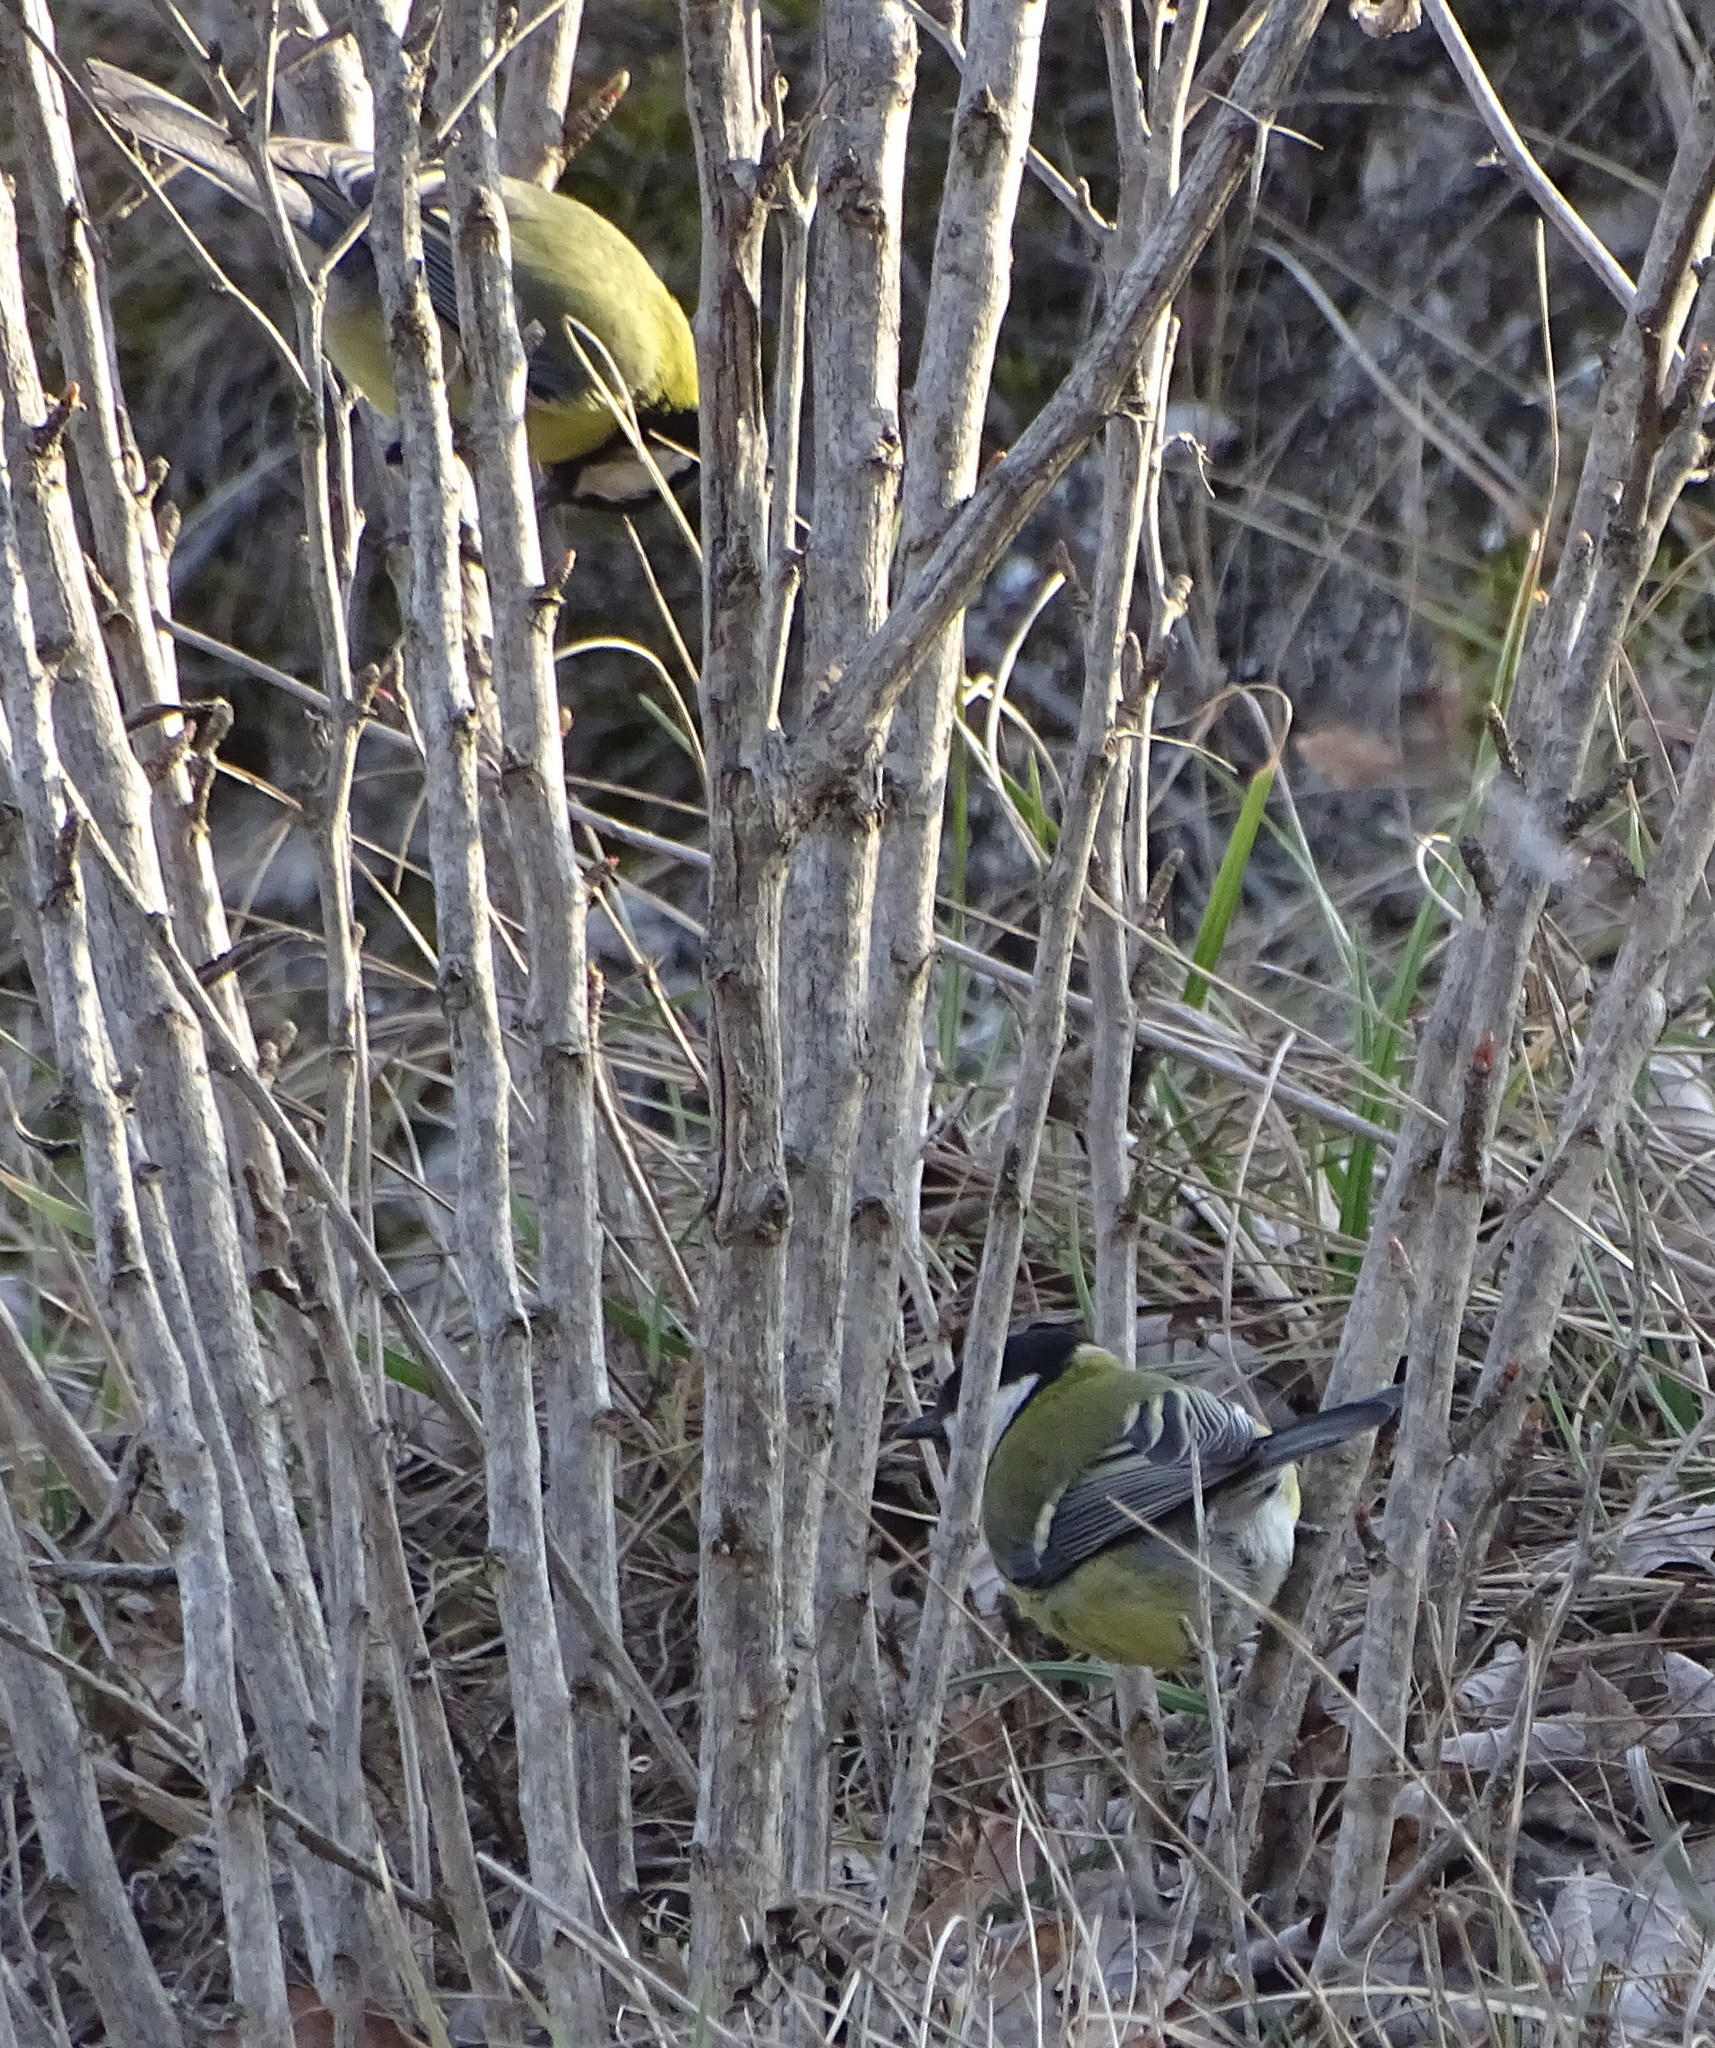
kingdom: Animalia
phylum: Chordata
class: Aves
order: Passeriformes
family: Paridae
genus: Parus
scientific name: Parus major
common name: Great tit
